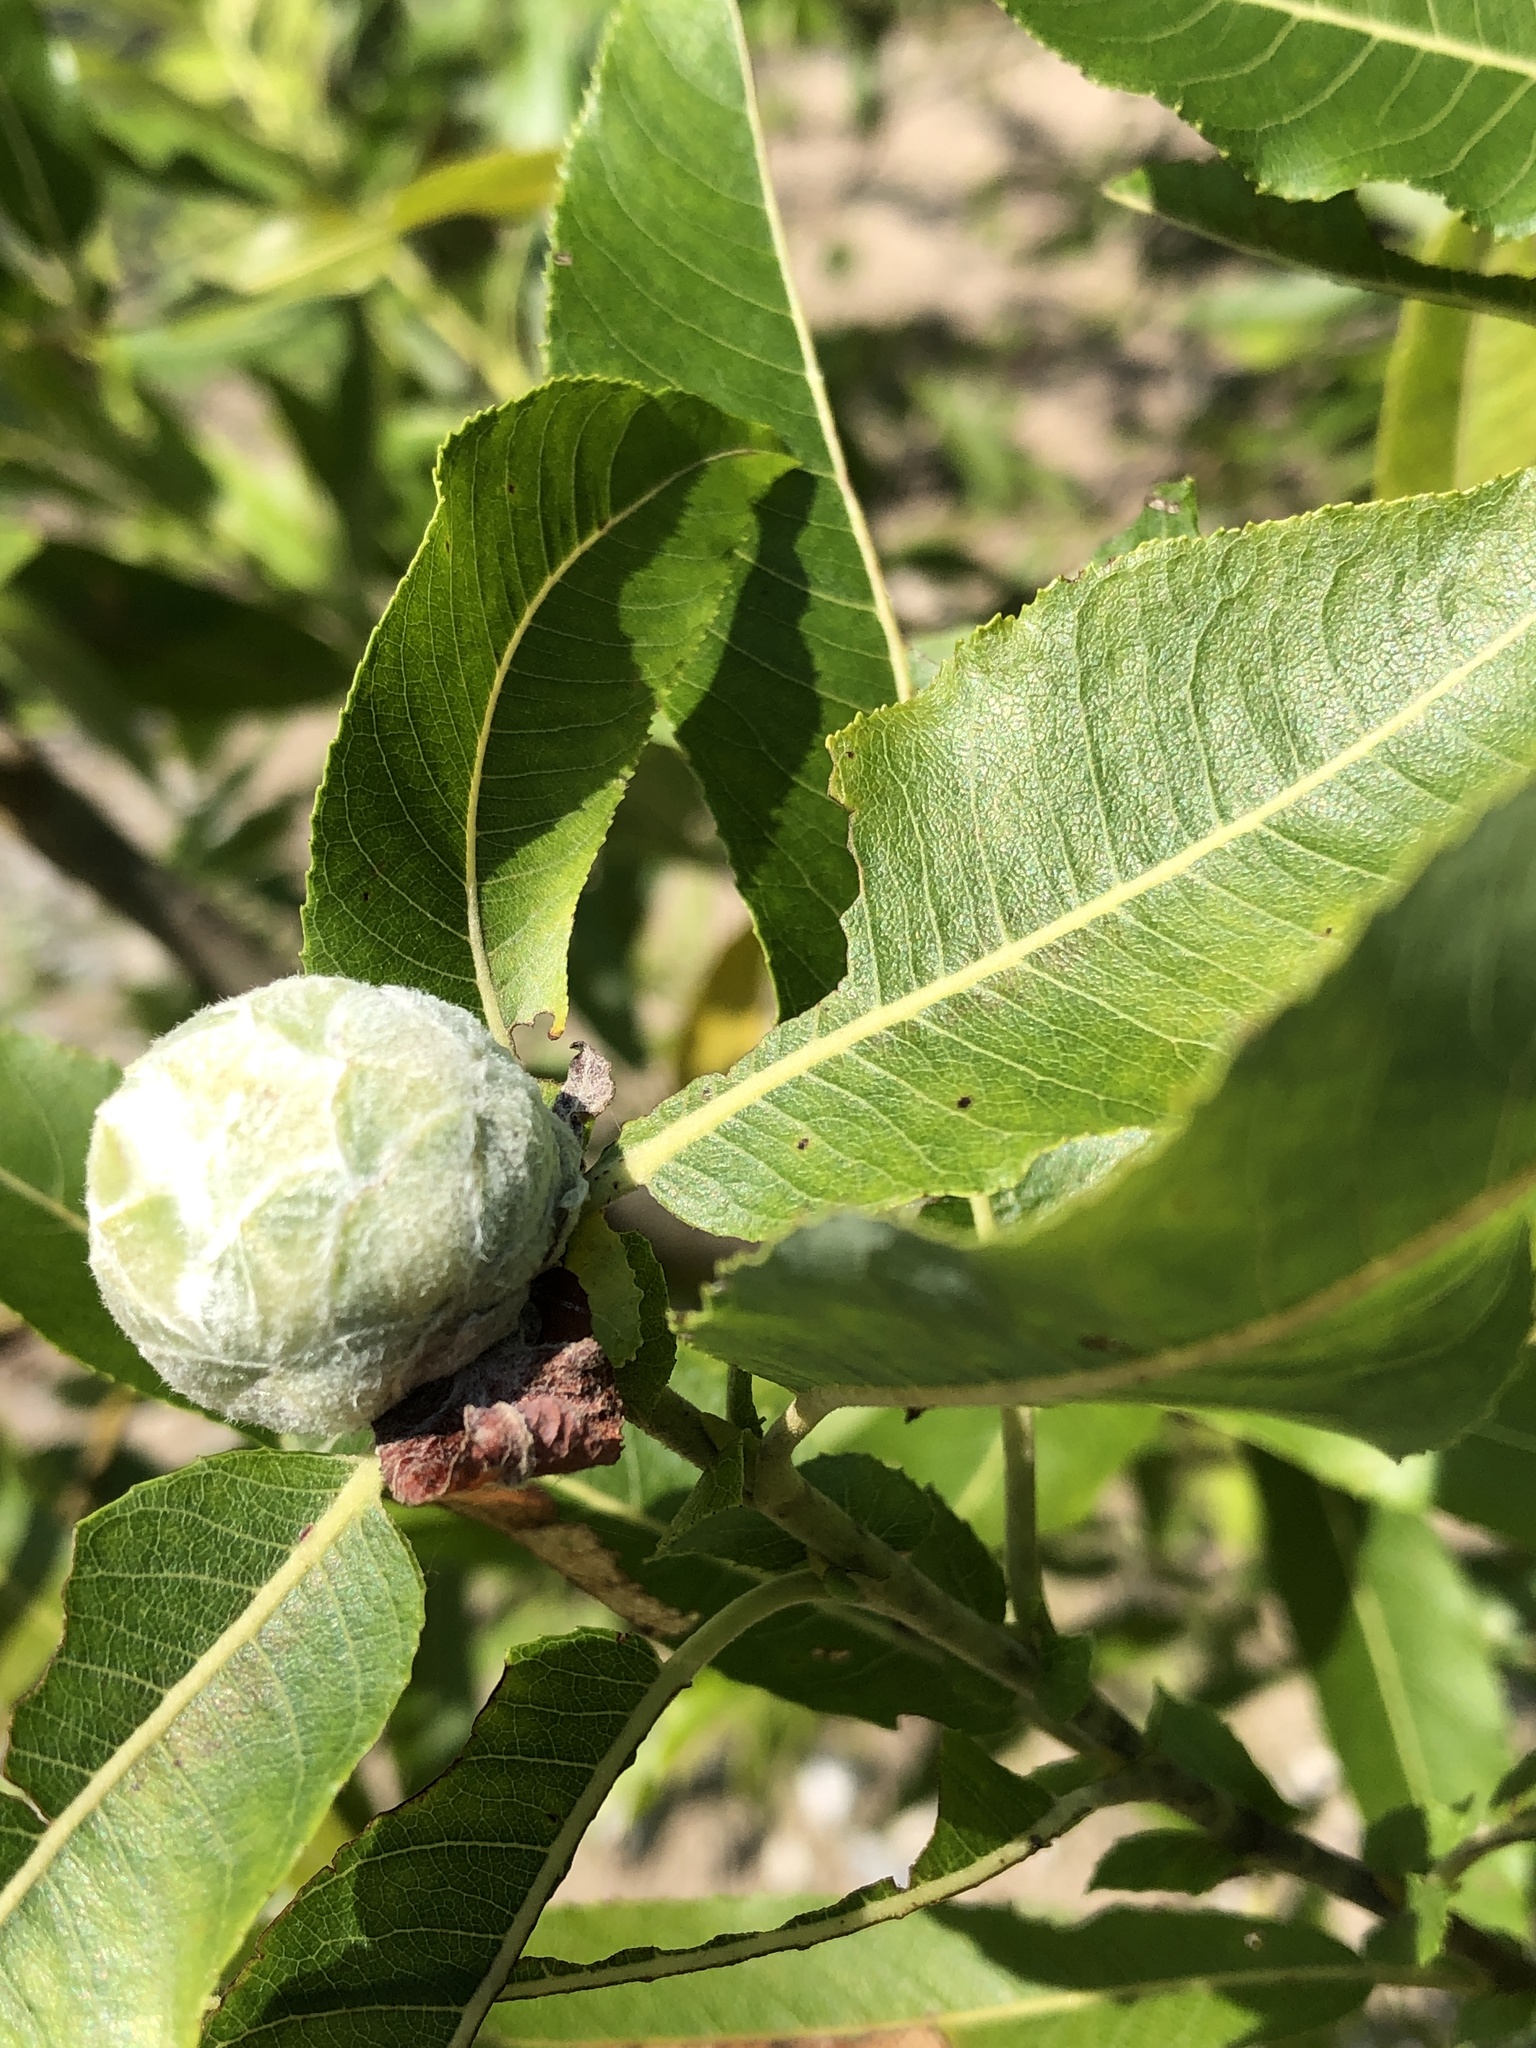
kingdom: Animalia
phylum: Arthropoda
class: Insecta
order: Diptera
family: Cecidomyiidae
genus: Rabdophaga
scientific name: Rabdophaga strobiloides
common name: Willow pinecone gall midge
